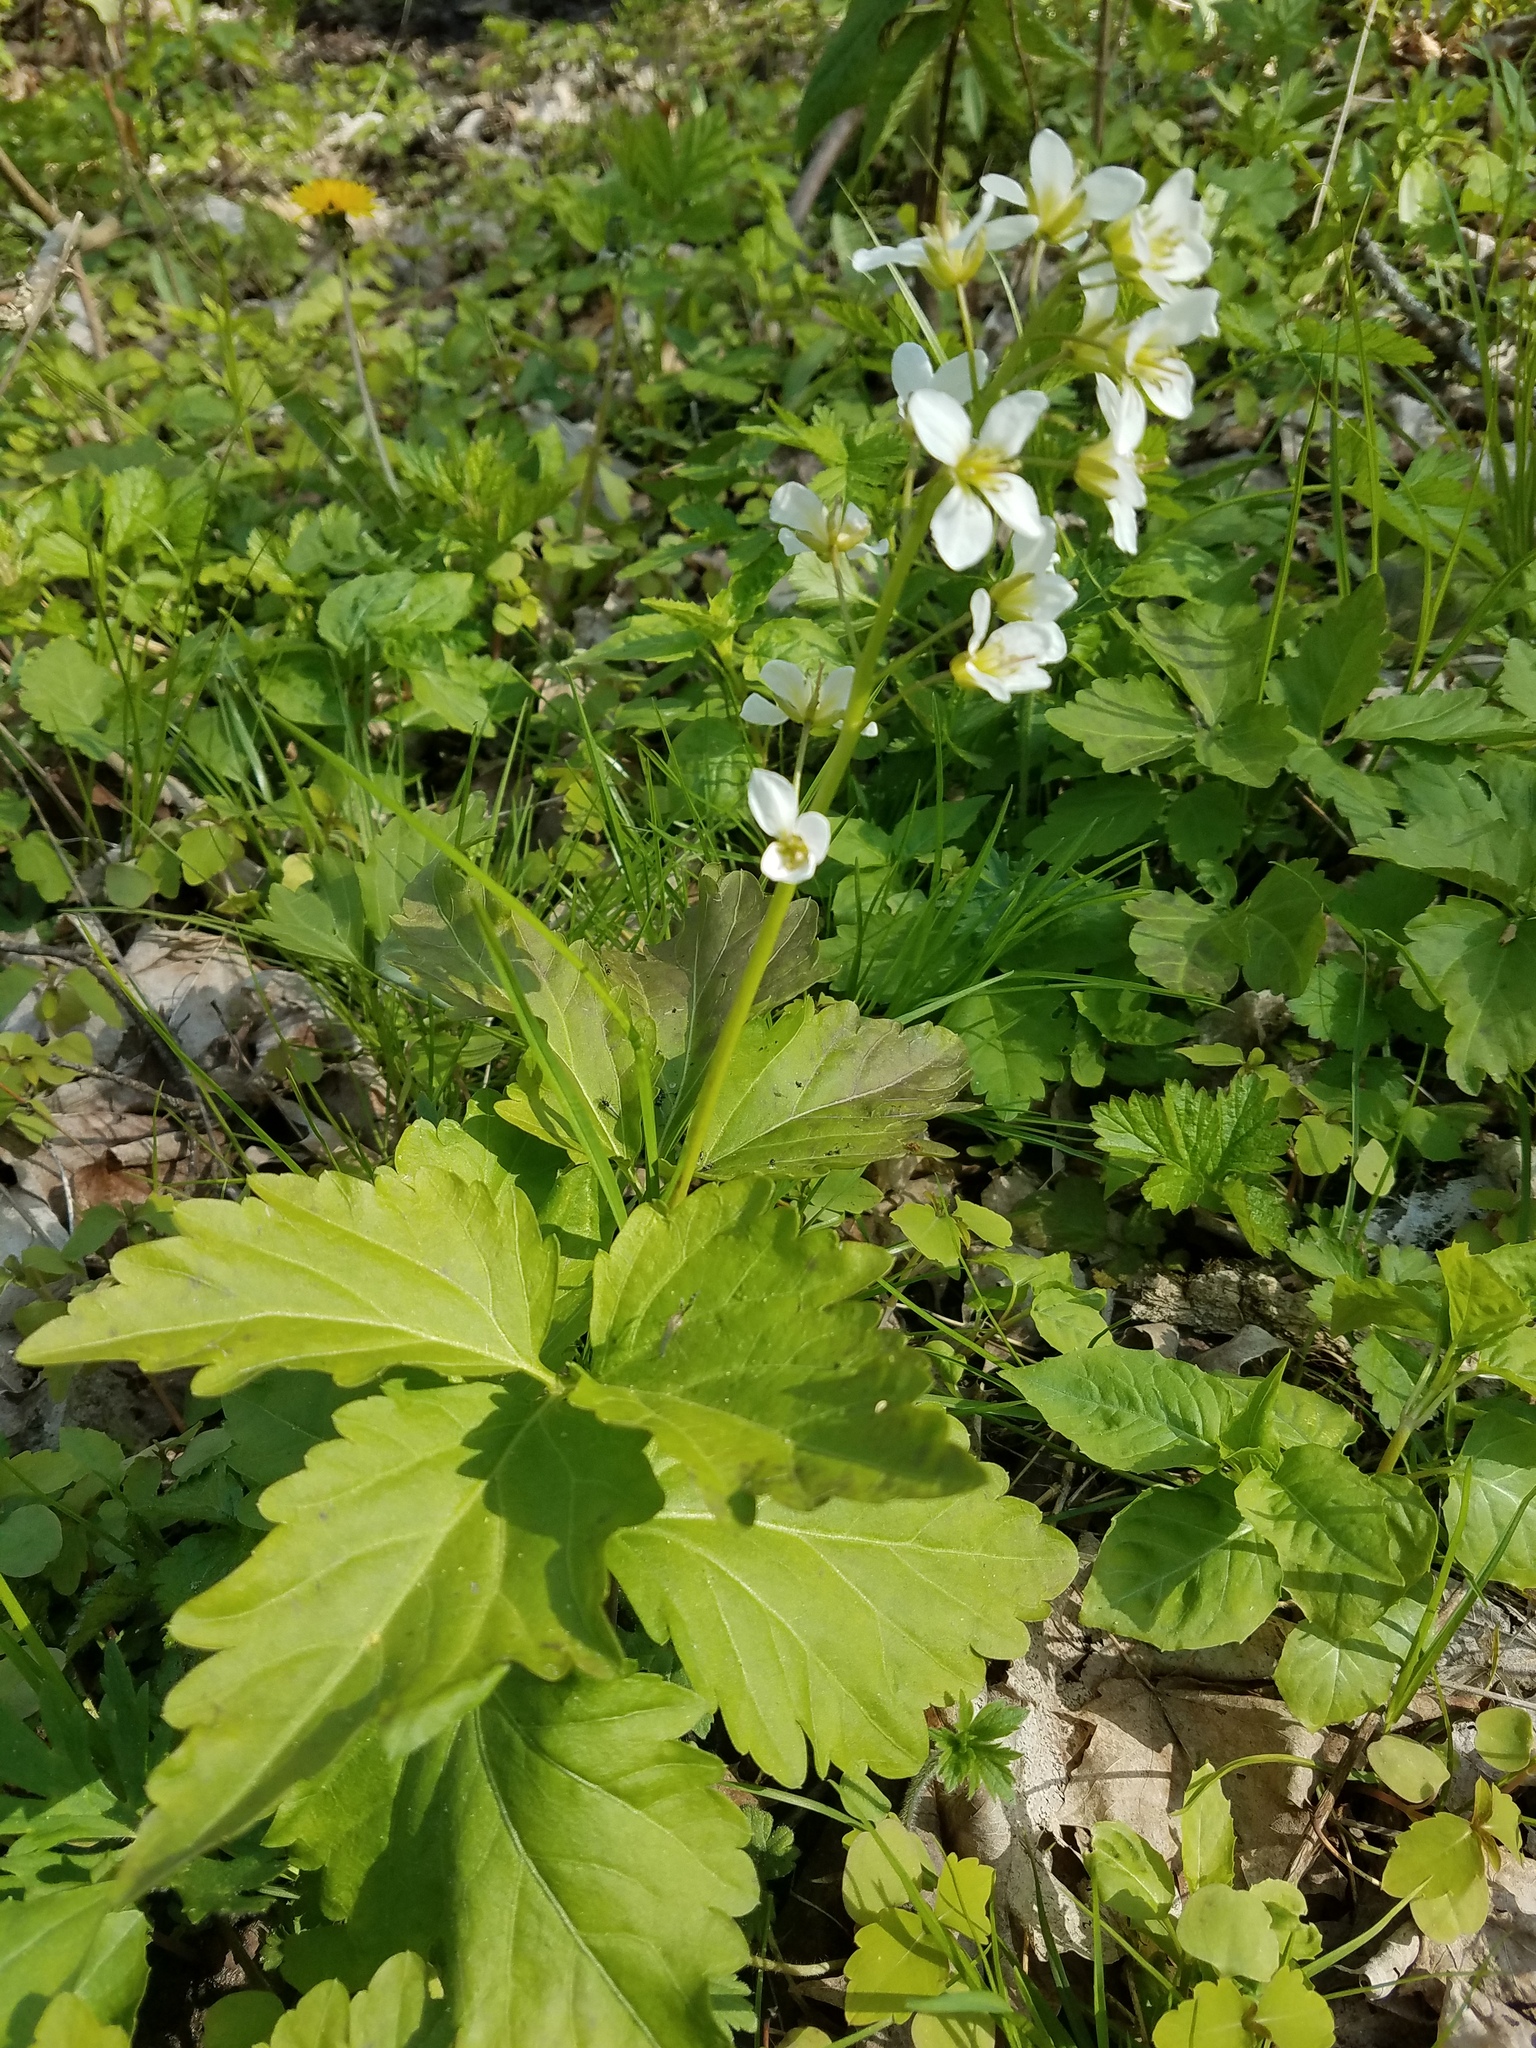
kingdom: Plantae
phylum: Tracheophyta
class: Magnoliopsida
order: Brassicales
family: Brassicaceae
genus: Cardamine
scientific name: Cardamine diphylla
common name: Broad-leaved toothwort
